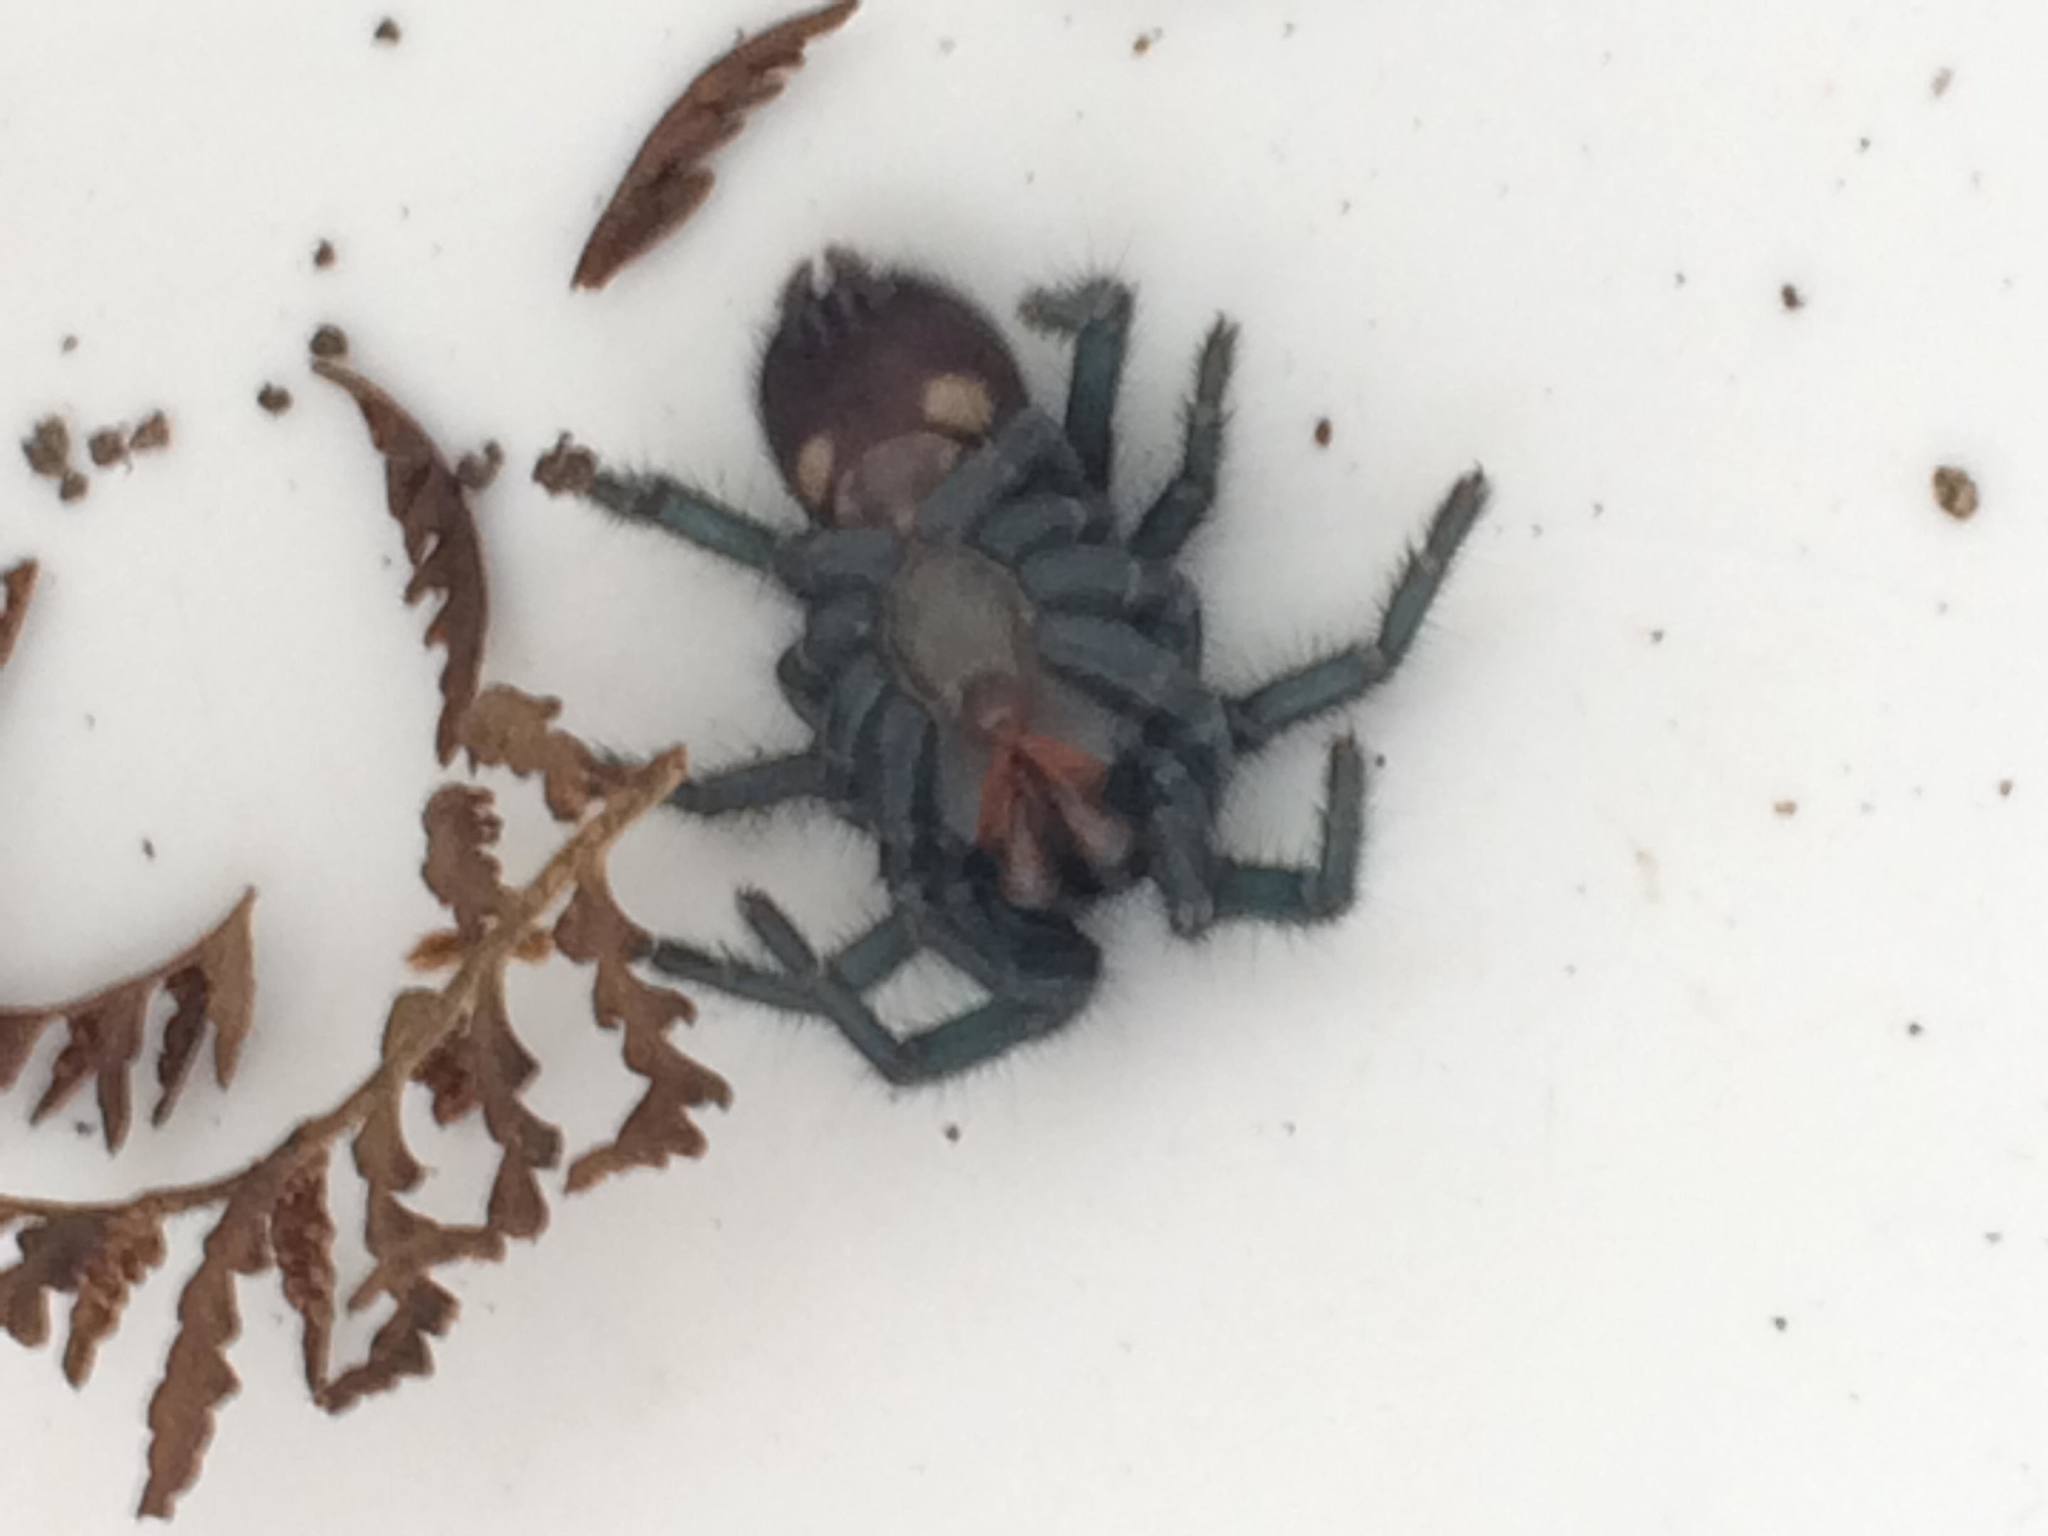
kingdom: Animalia
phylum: Arthropoda
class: Arachnida
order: Araneae
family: Atracidae
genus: Atrax
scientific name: Atrax robustus
